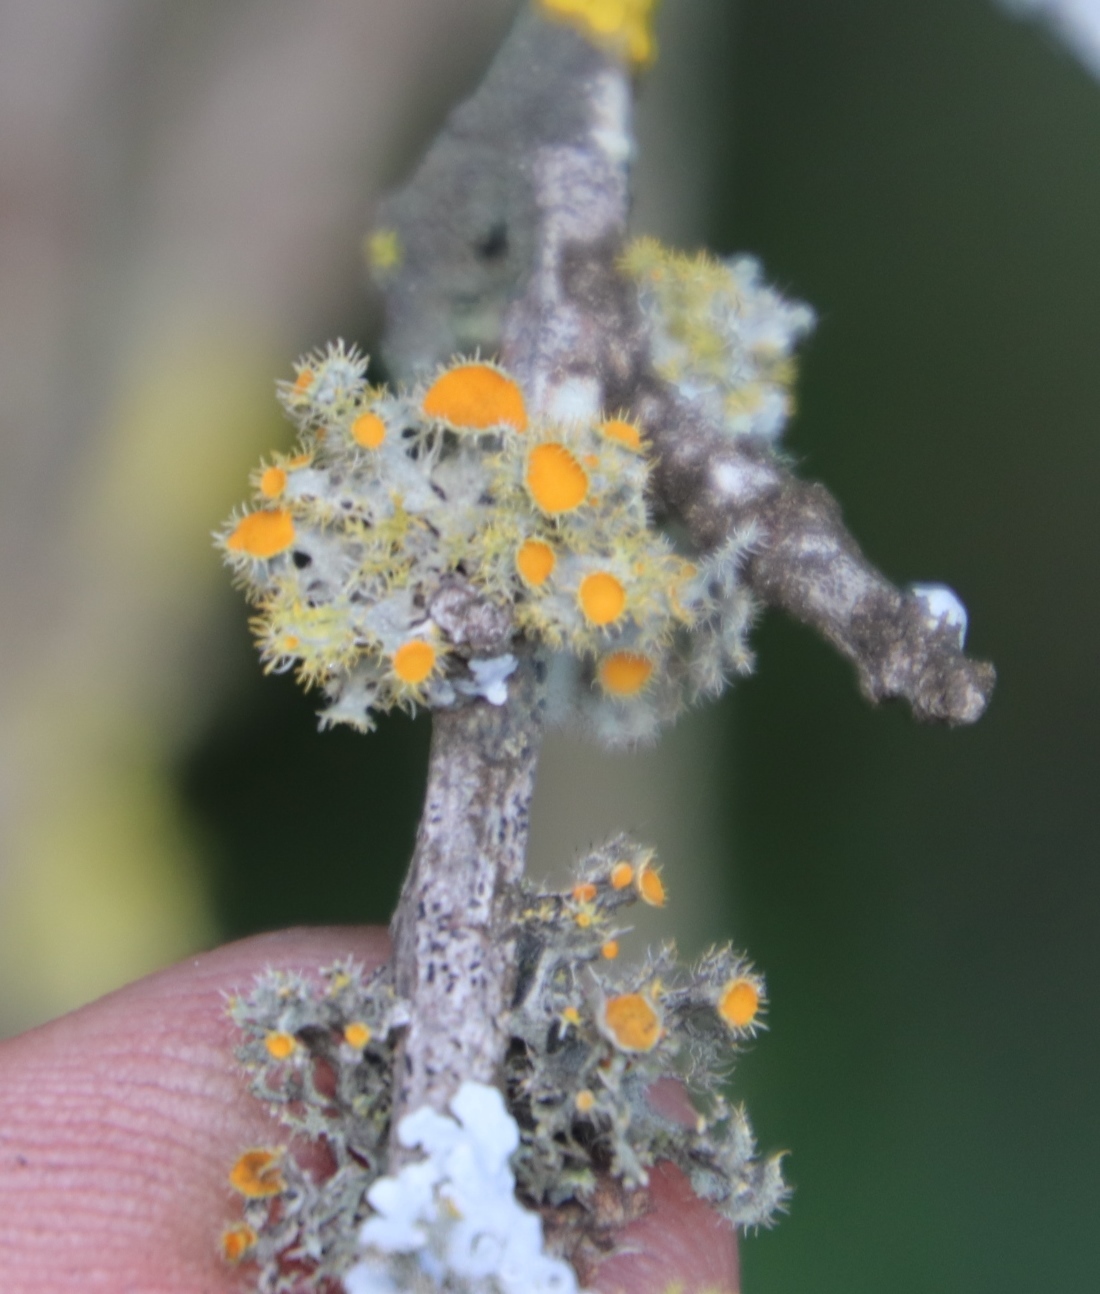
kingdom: Fungi
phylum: Ascomycota
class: Lecanoromycetes
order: Teloschistales
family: Teloschistaceae
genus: Niorma
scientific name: Niorma chrysophthalma
